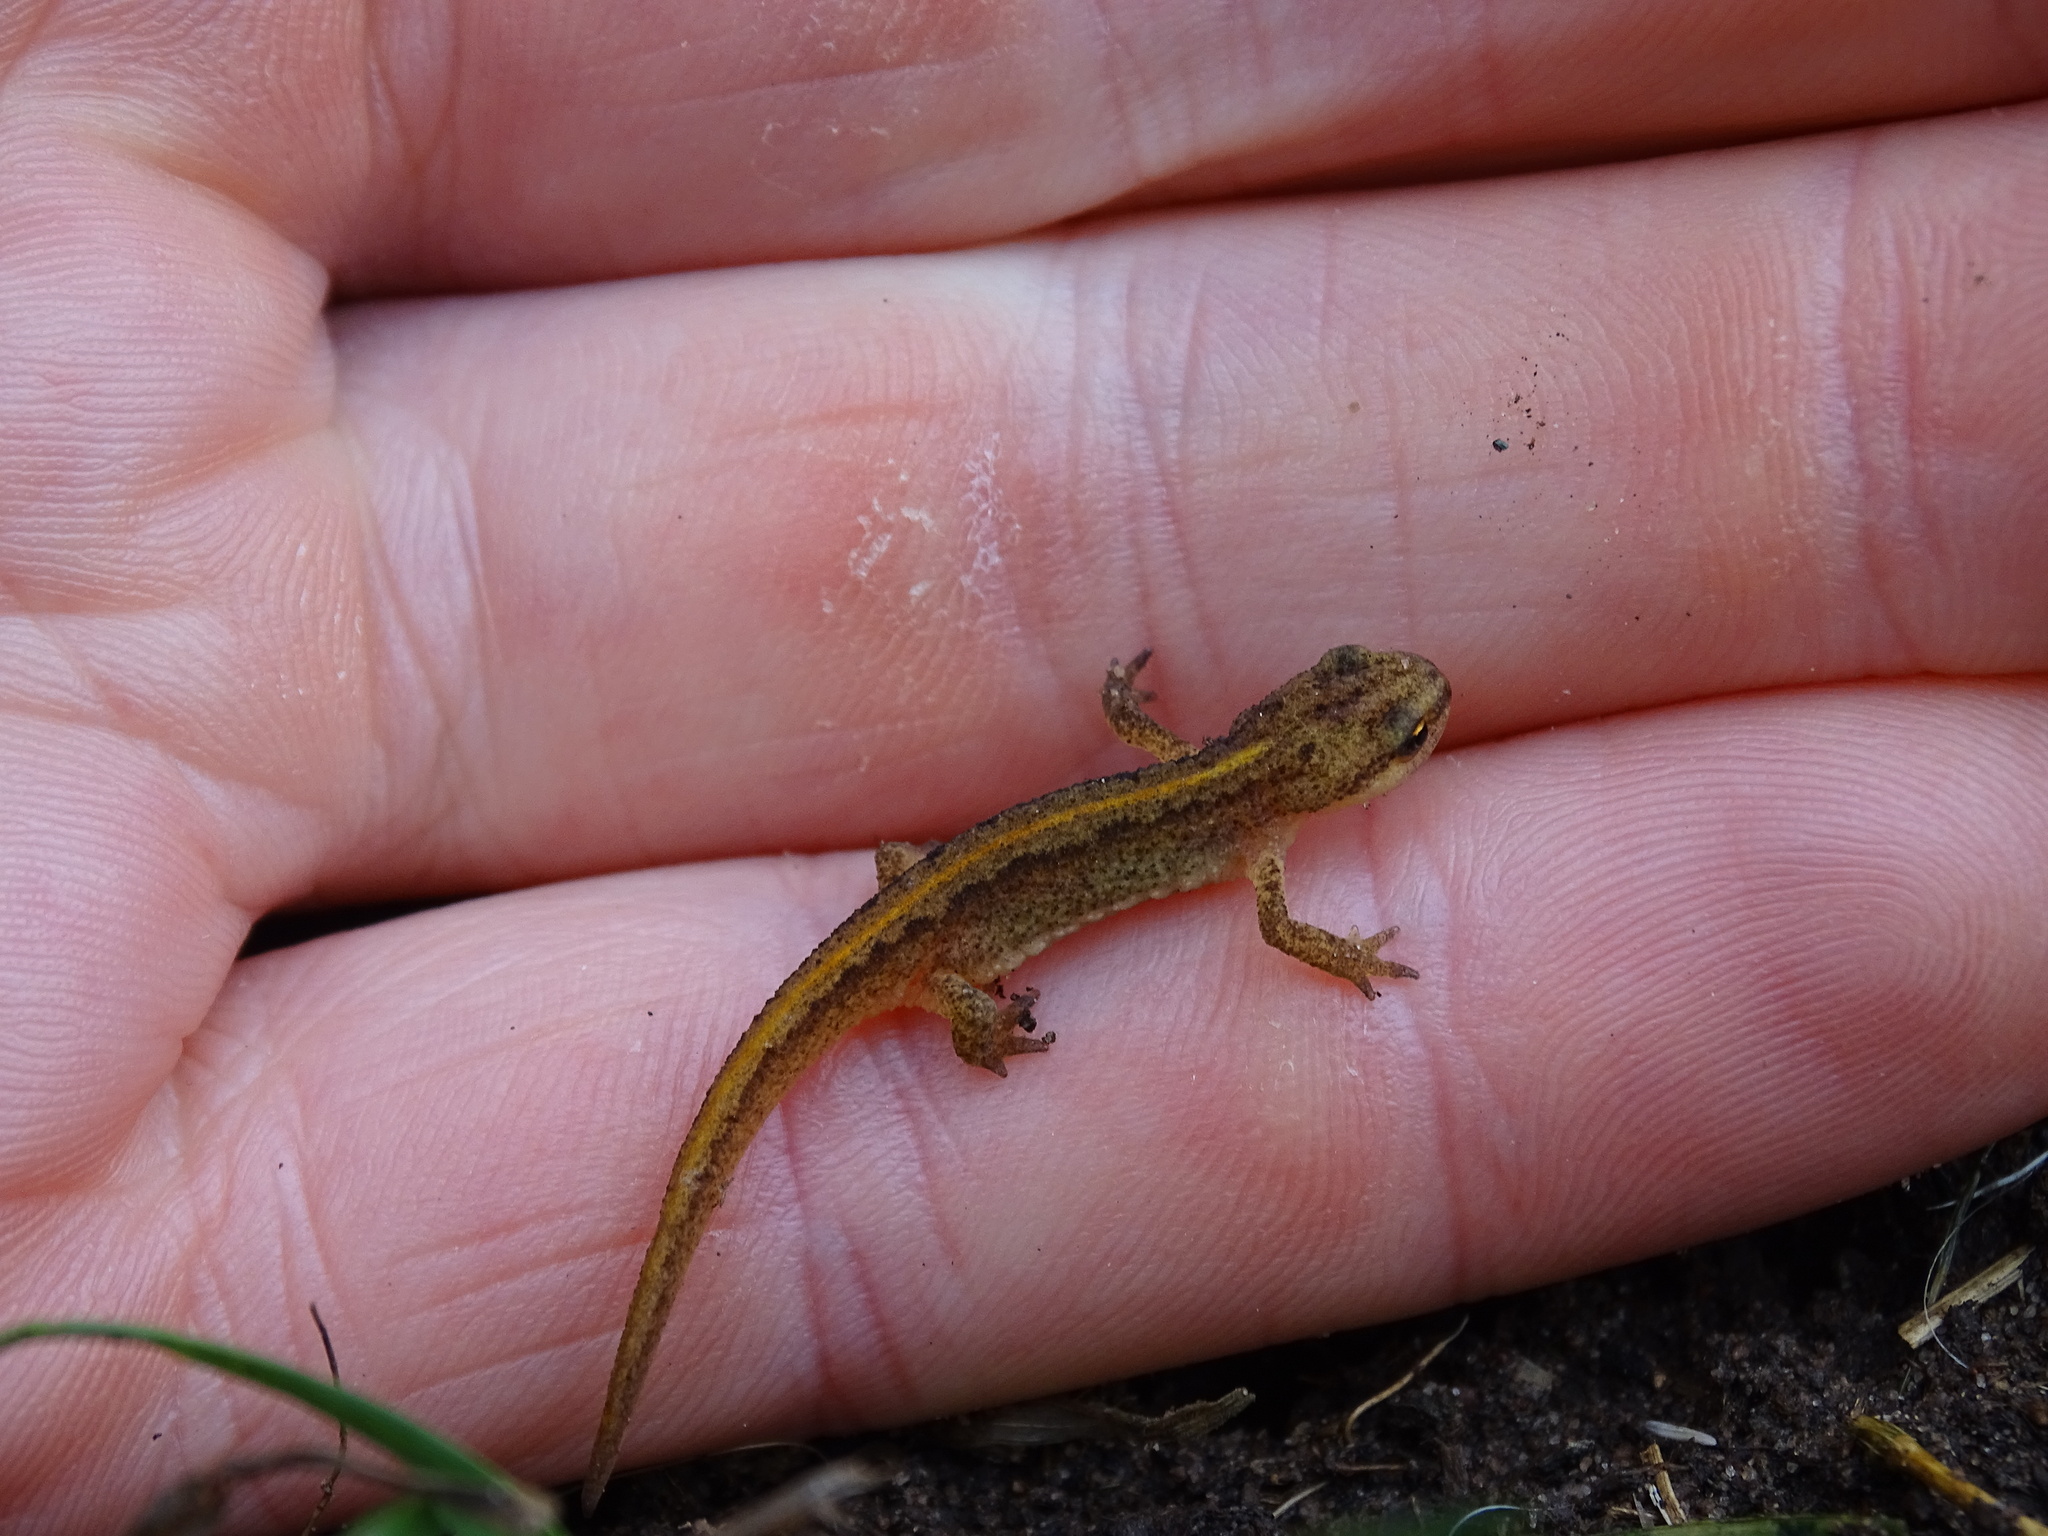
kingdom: Animalia
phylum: Chordata
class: Amphibia
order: Caudata
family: Salamandridae
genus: Lissotriton
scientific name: Lissotriton helveticus
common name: Palmate newt
